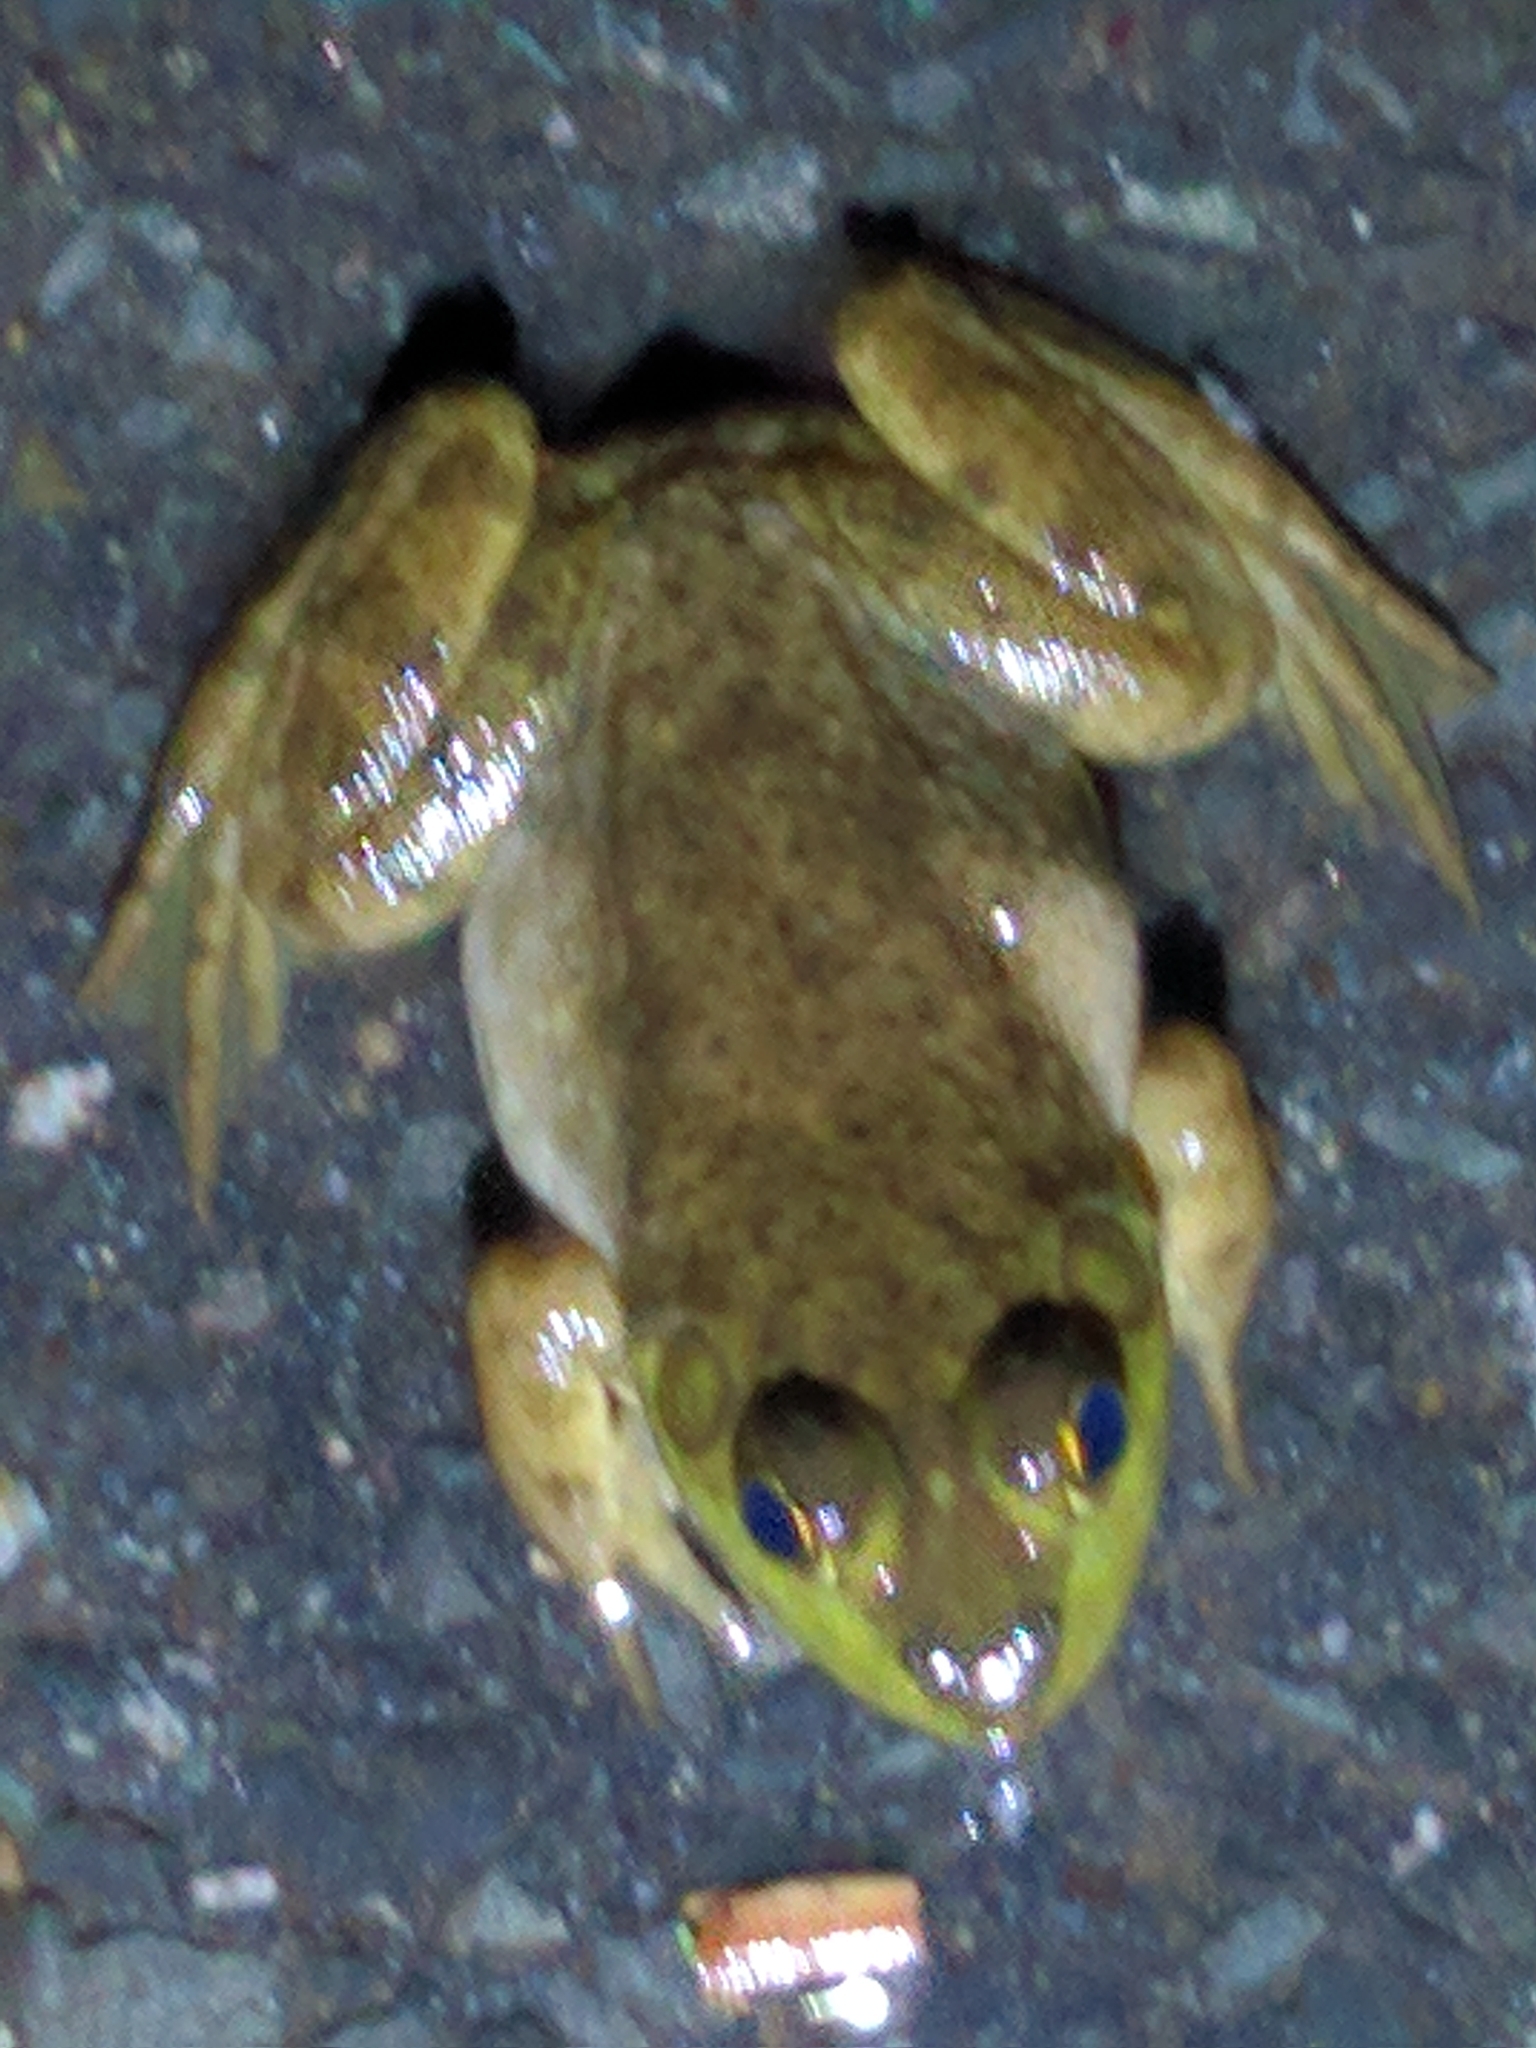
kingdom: Animalia
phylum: Chordata
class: Amphibia
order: Anura
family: Ranidae
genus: Lithobates
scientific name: Lithobates catesbeianus
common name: American bullfrog
